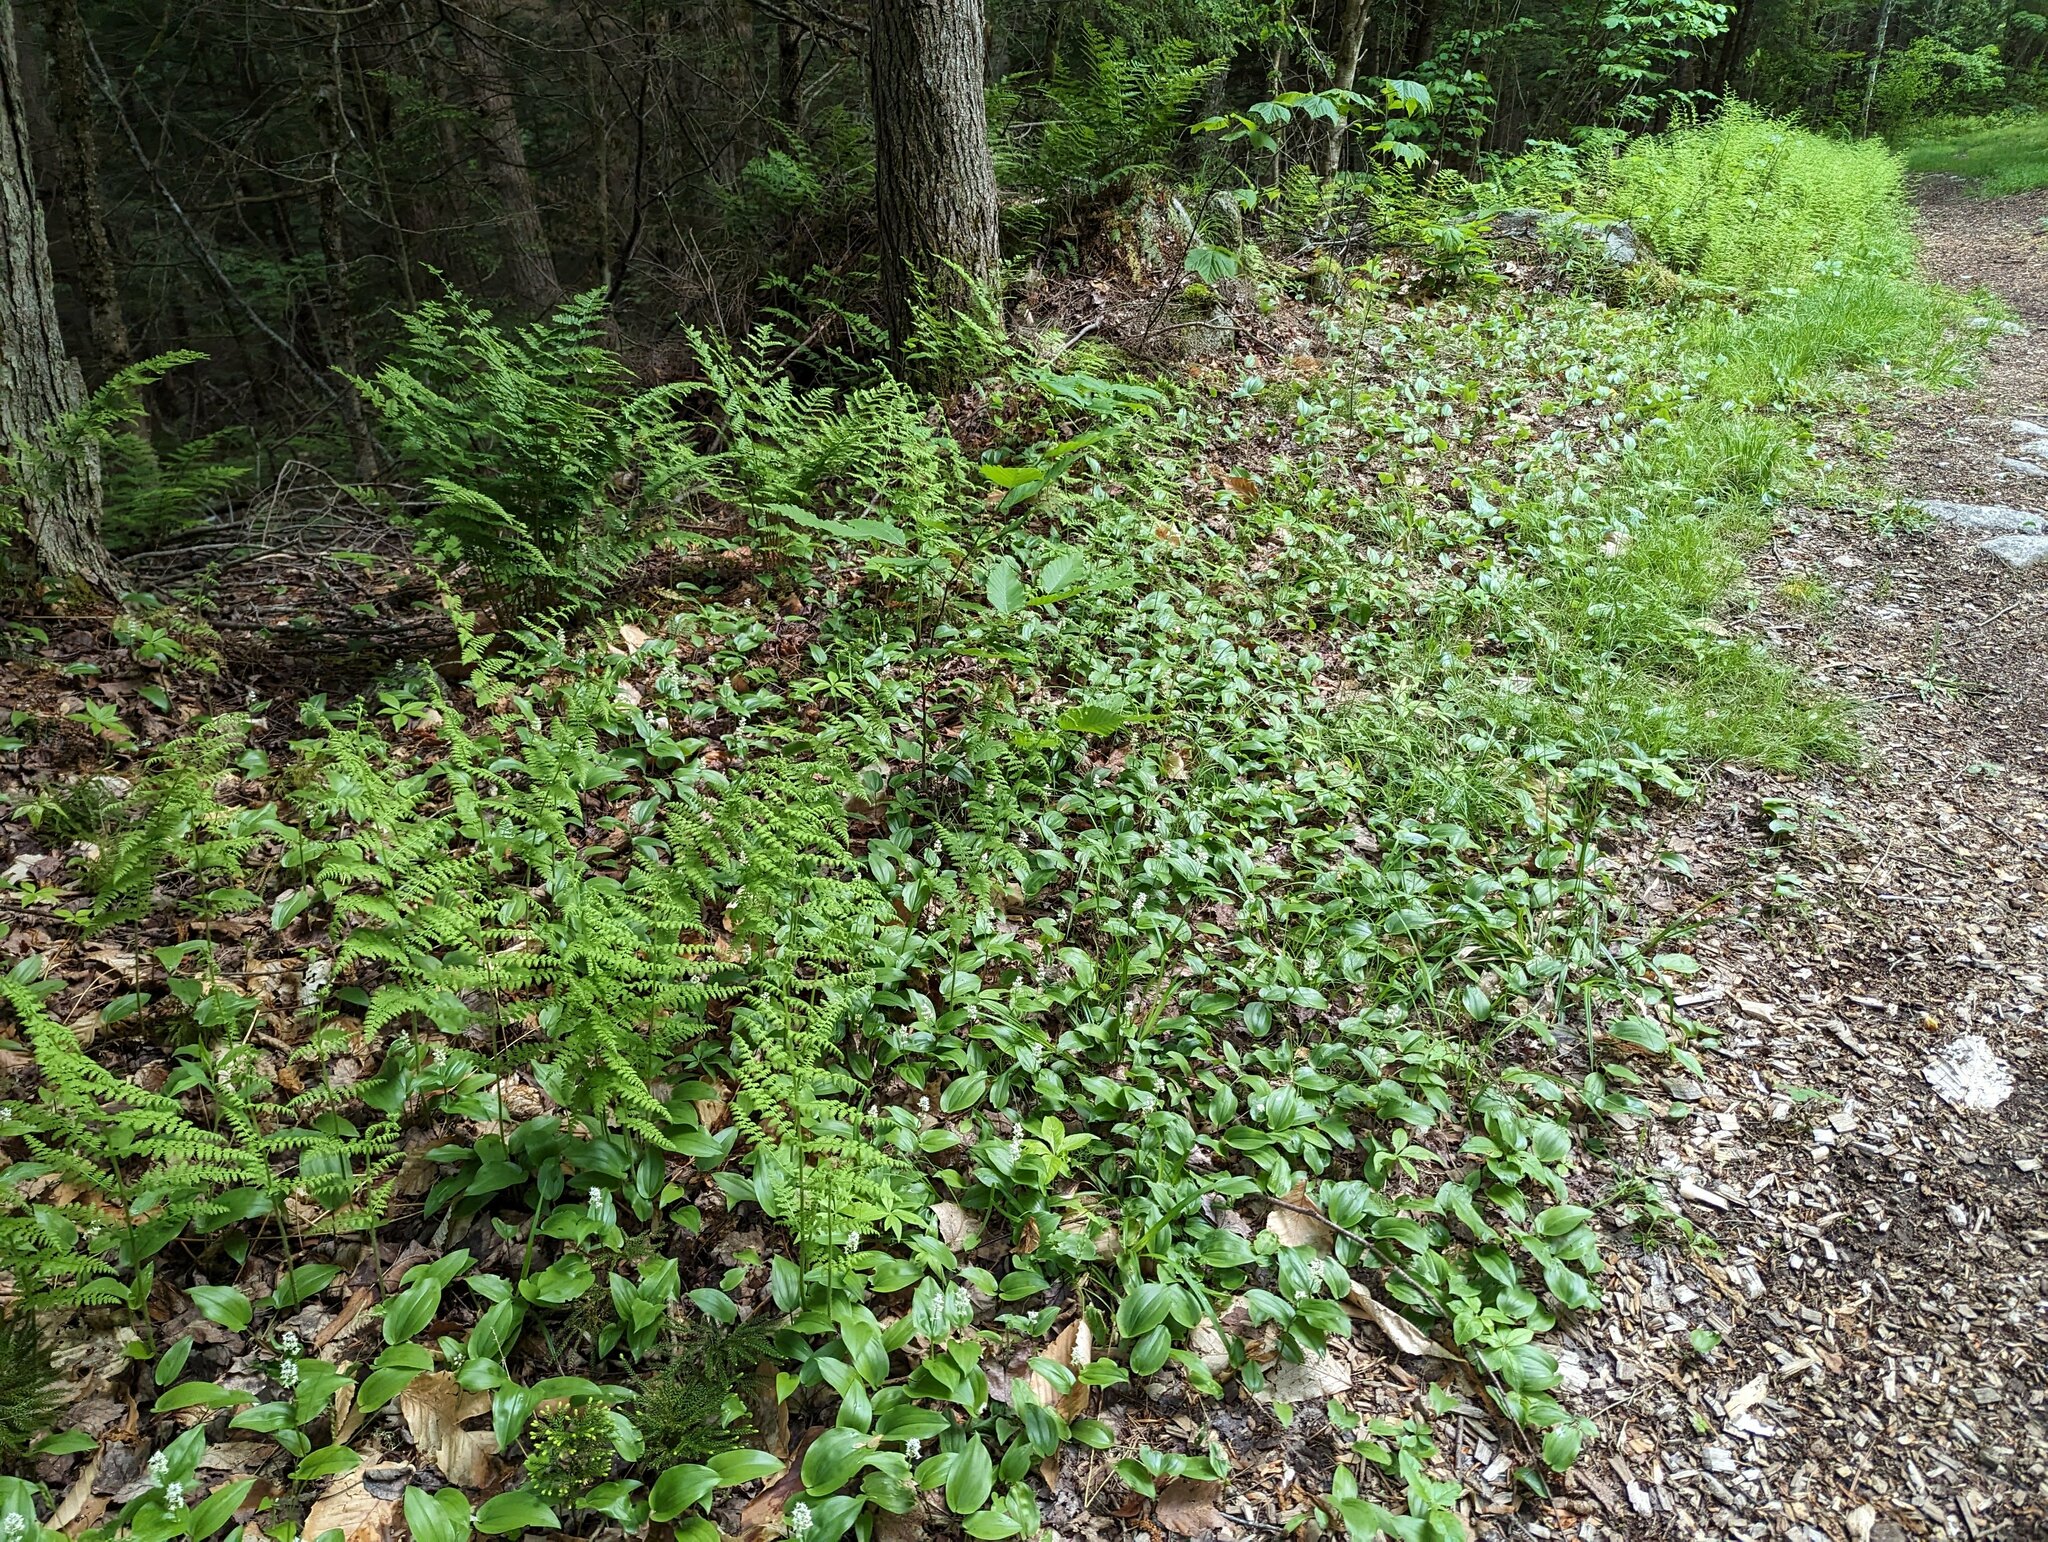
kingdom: Plantae
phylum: Tracheophyta
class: Liliopsida
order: Asparagales
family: Asparagaceae
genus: Maianthemum
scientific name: Maianthemum canadense
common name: False lily-of-the-valley
